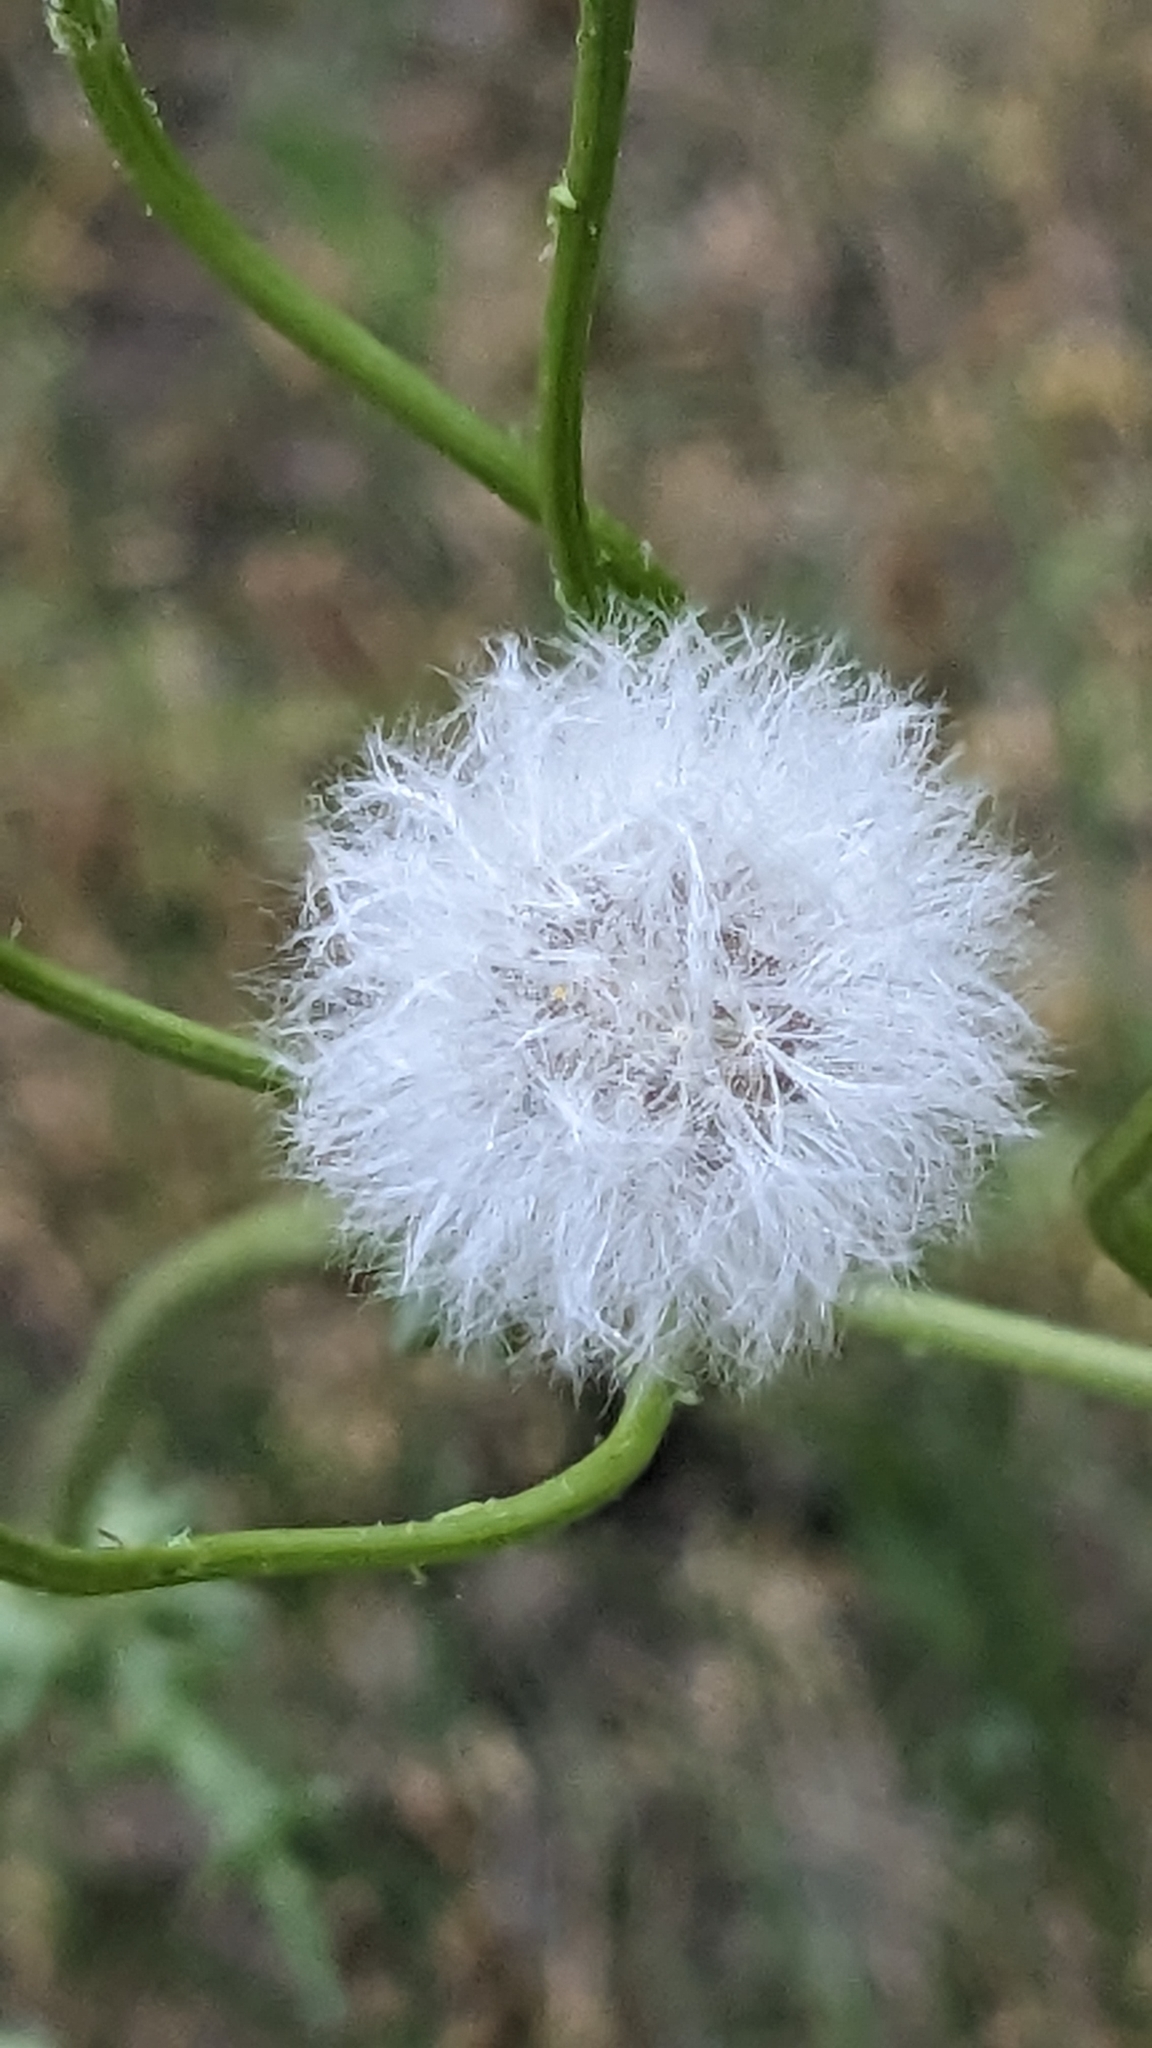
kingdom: Plantae
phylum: Tracheophyta
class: Magnoliopsida
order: Asterales
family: Asteraceae
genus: Senecio
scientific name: Senecio vernalis
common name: Eastern groundsel
